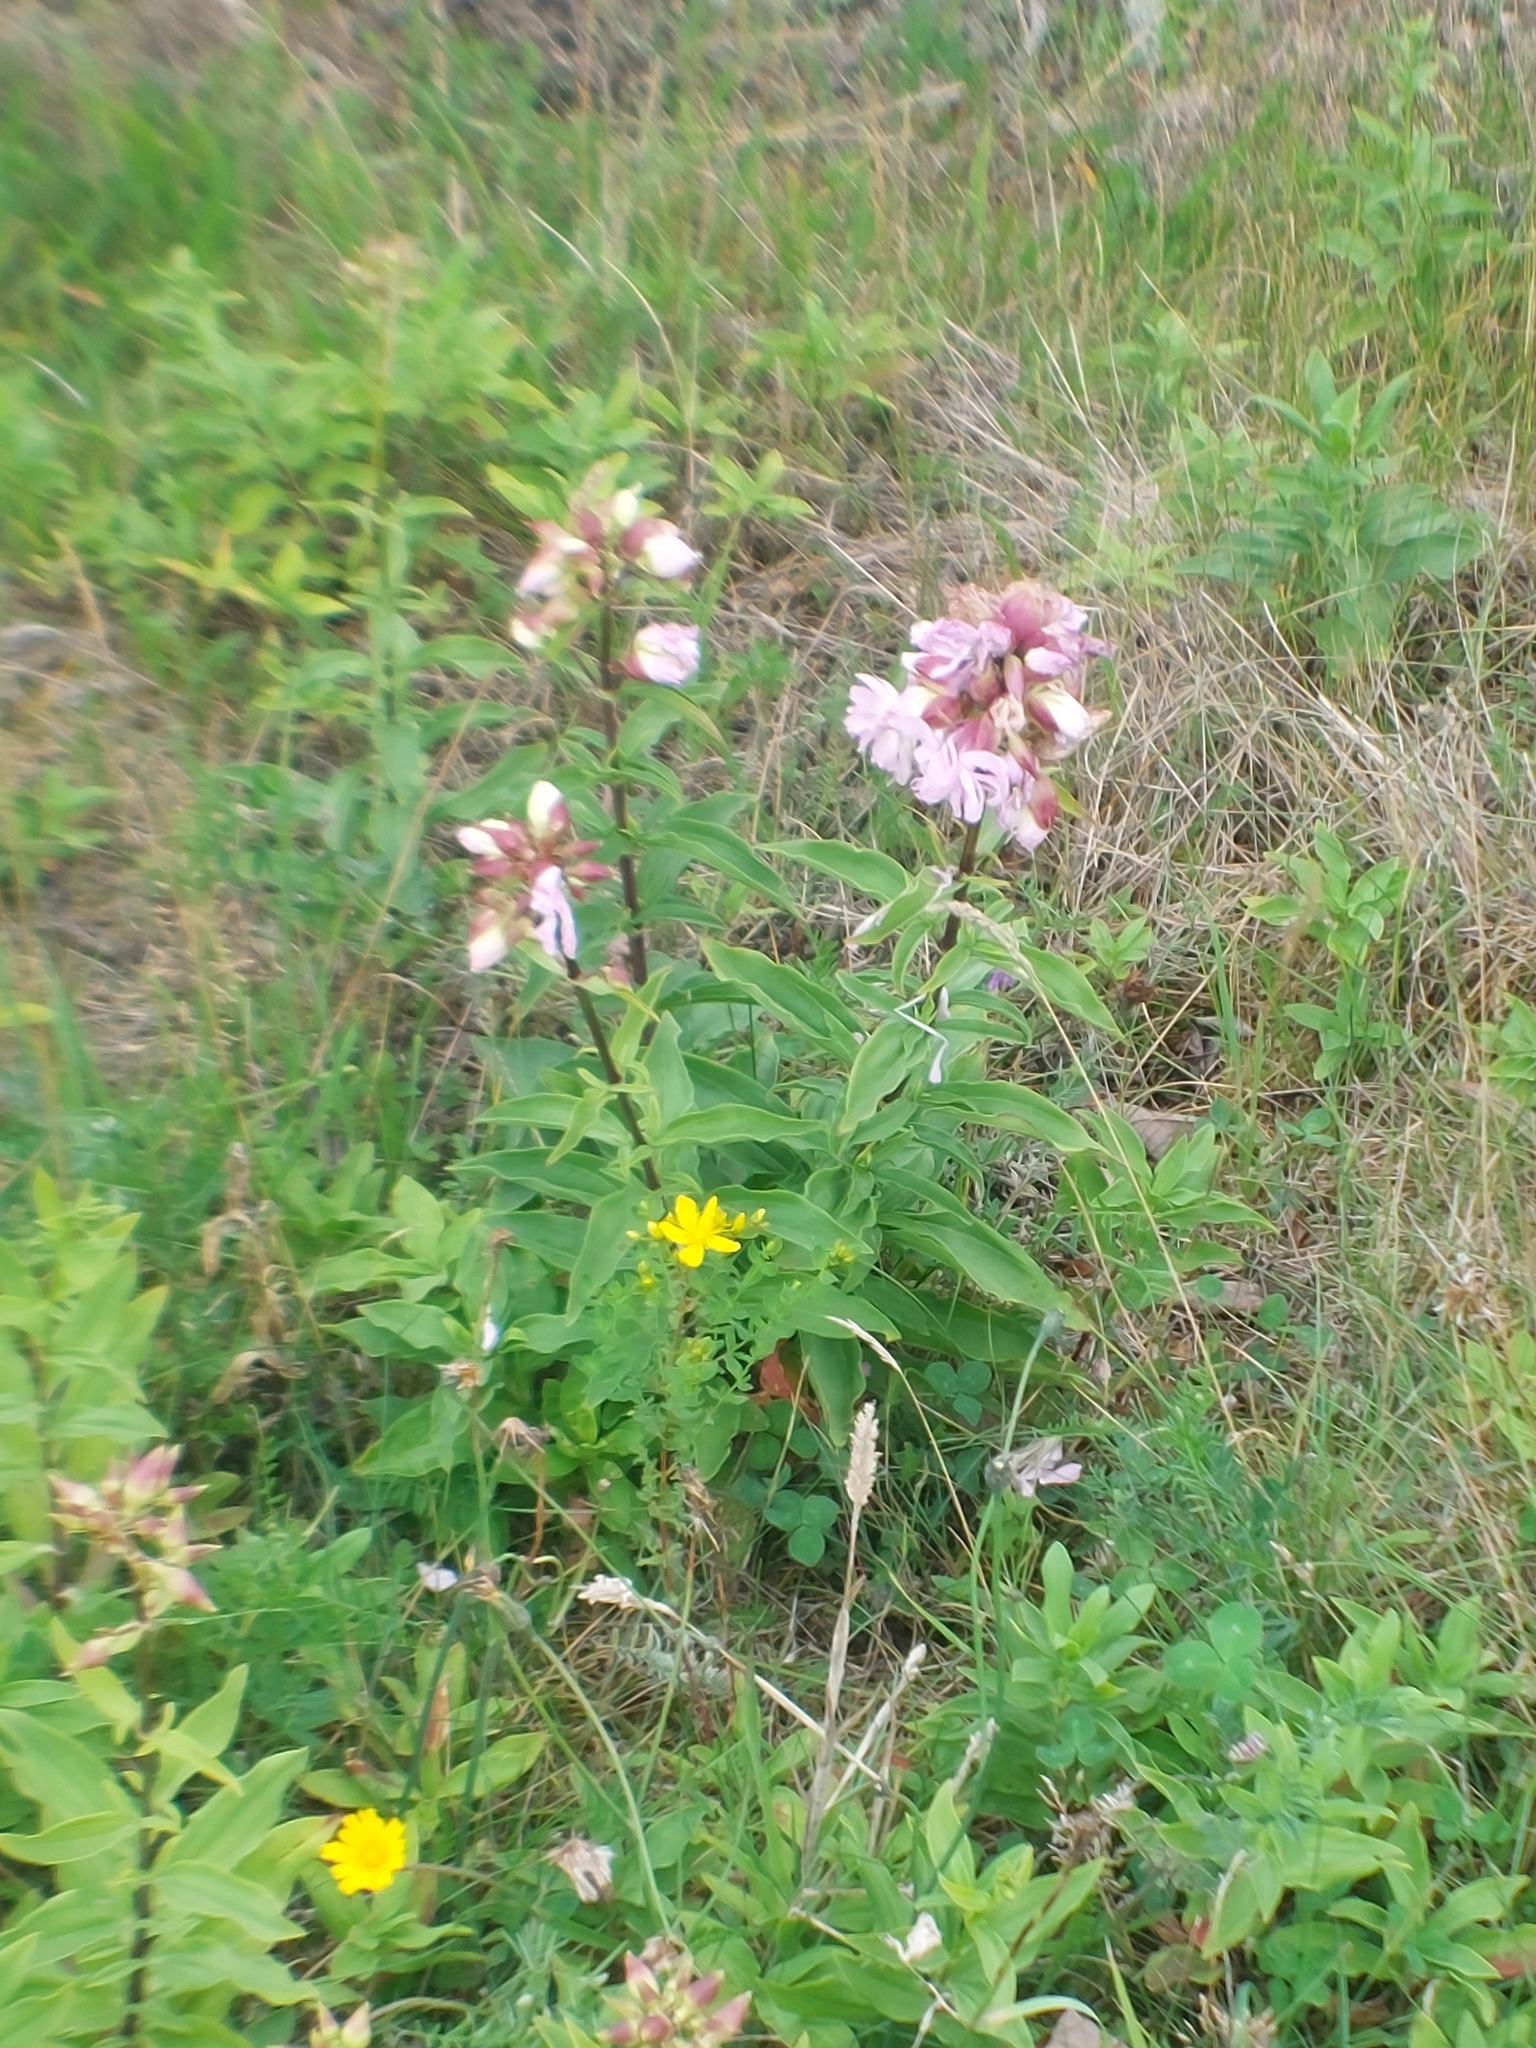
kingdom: Plantae
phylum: Tracheophyta
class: Magnoliopsida
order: Caryophyllales
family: Caryophyllaceae
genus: Saponaria
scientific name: Saponaria officinalis
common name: Soapwort
